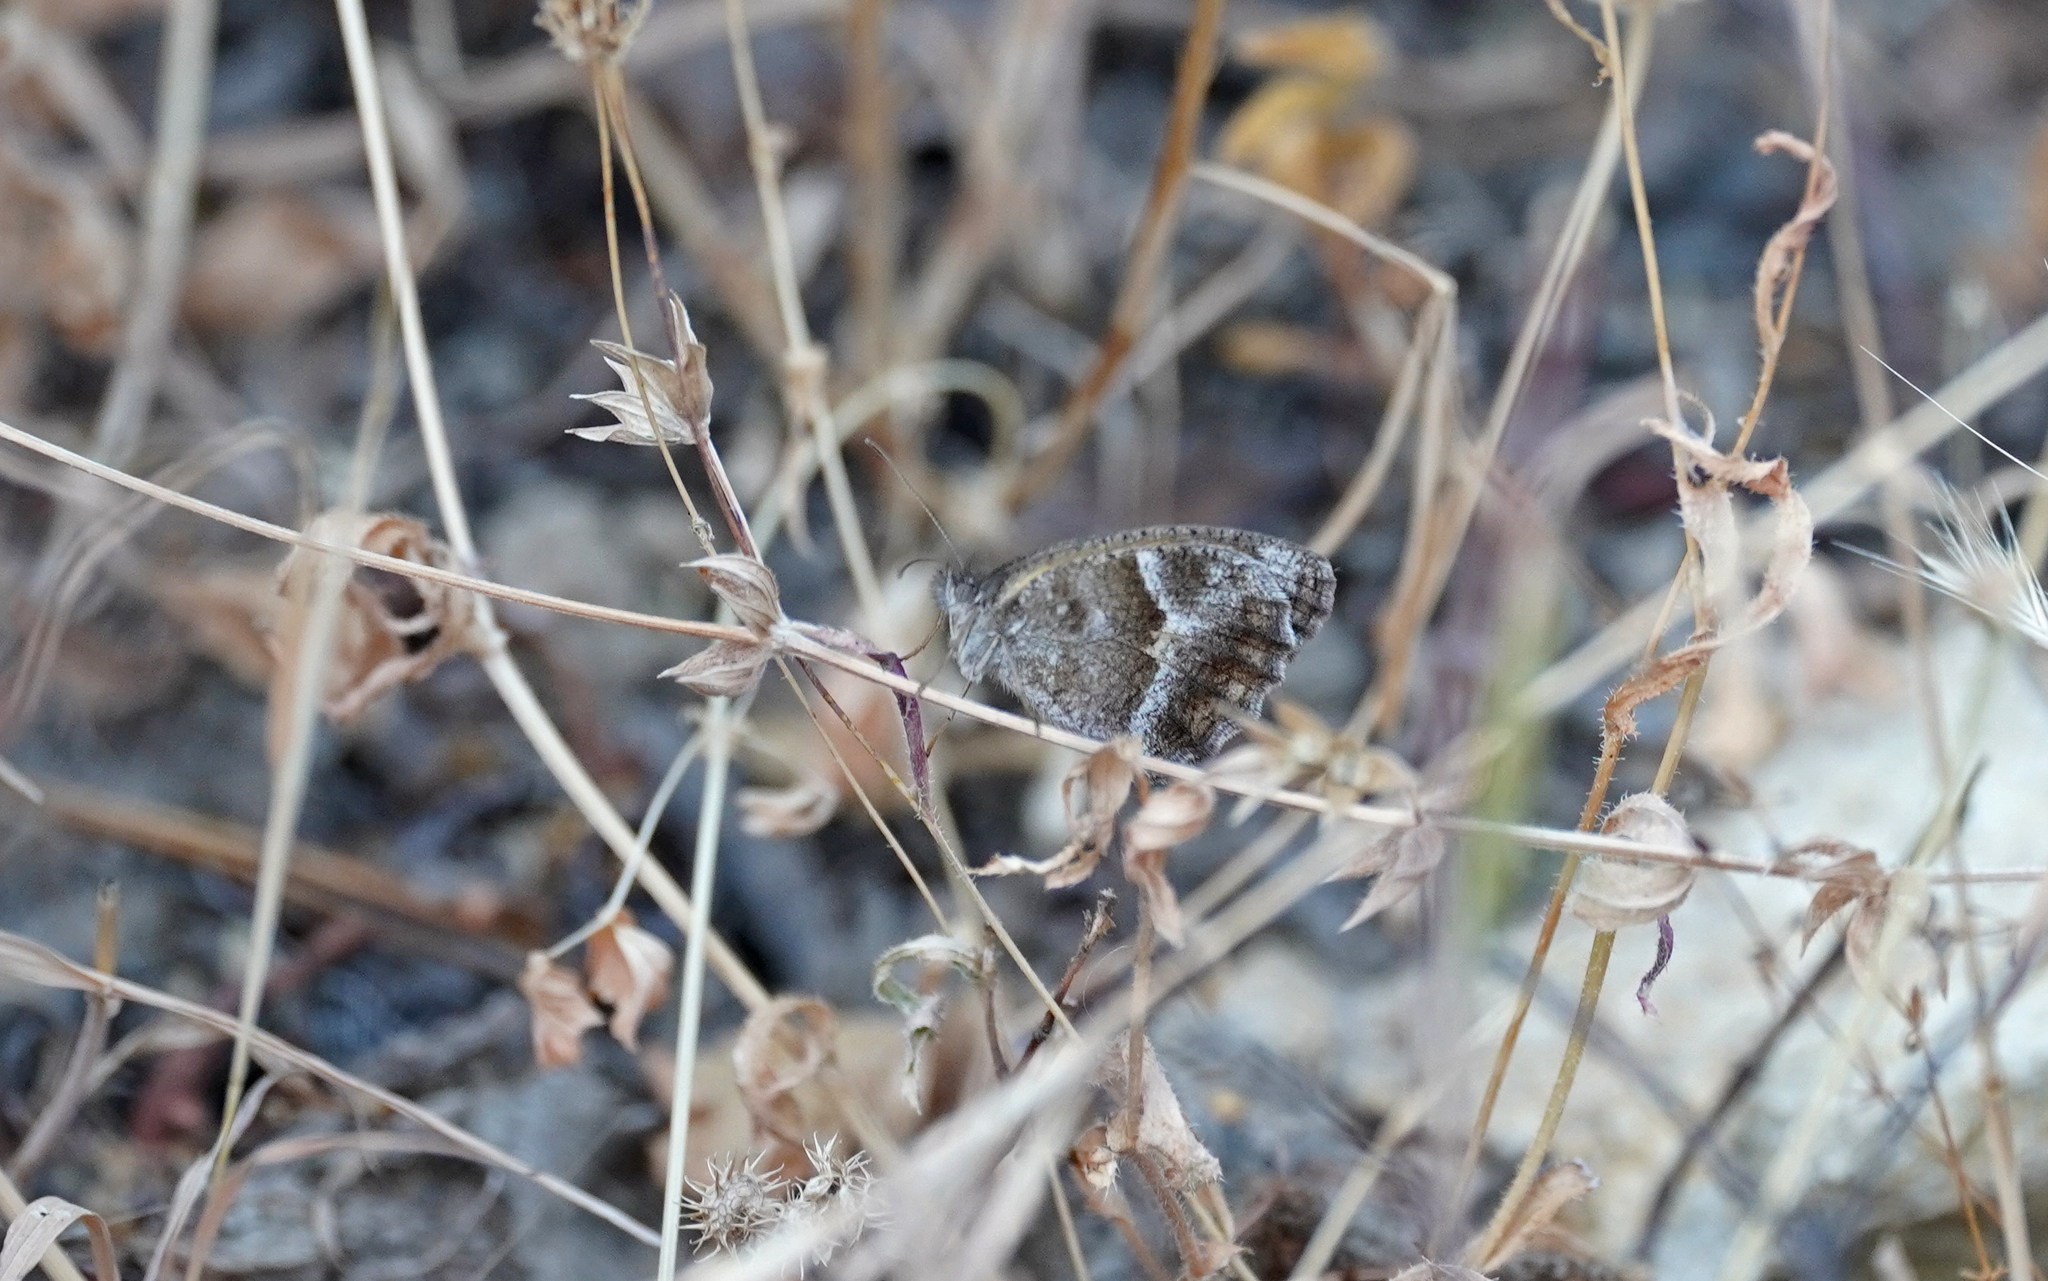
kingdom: Animalia
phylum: Arthropoda
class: Insecta
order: Lepidoptera
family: Nymphalidae
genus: Pyronia
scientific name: Pyronia cecilia
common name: Southern gatekeeper
